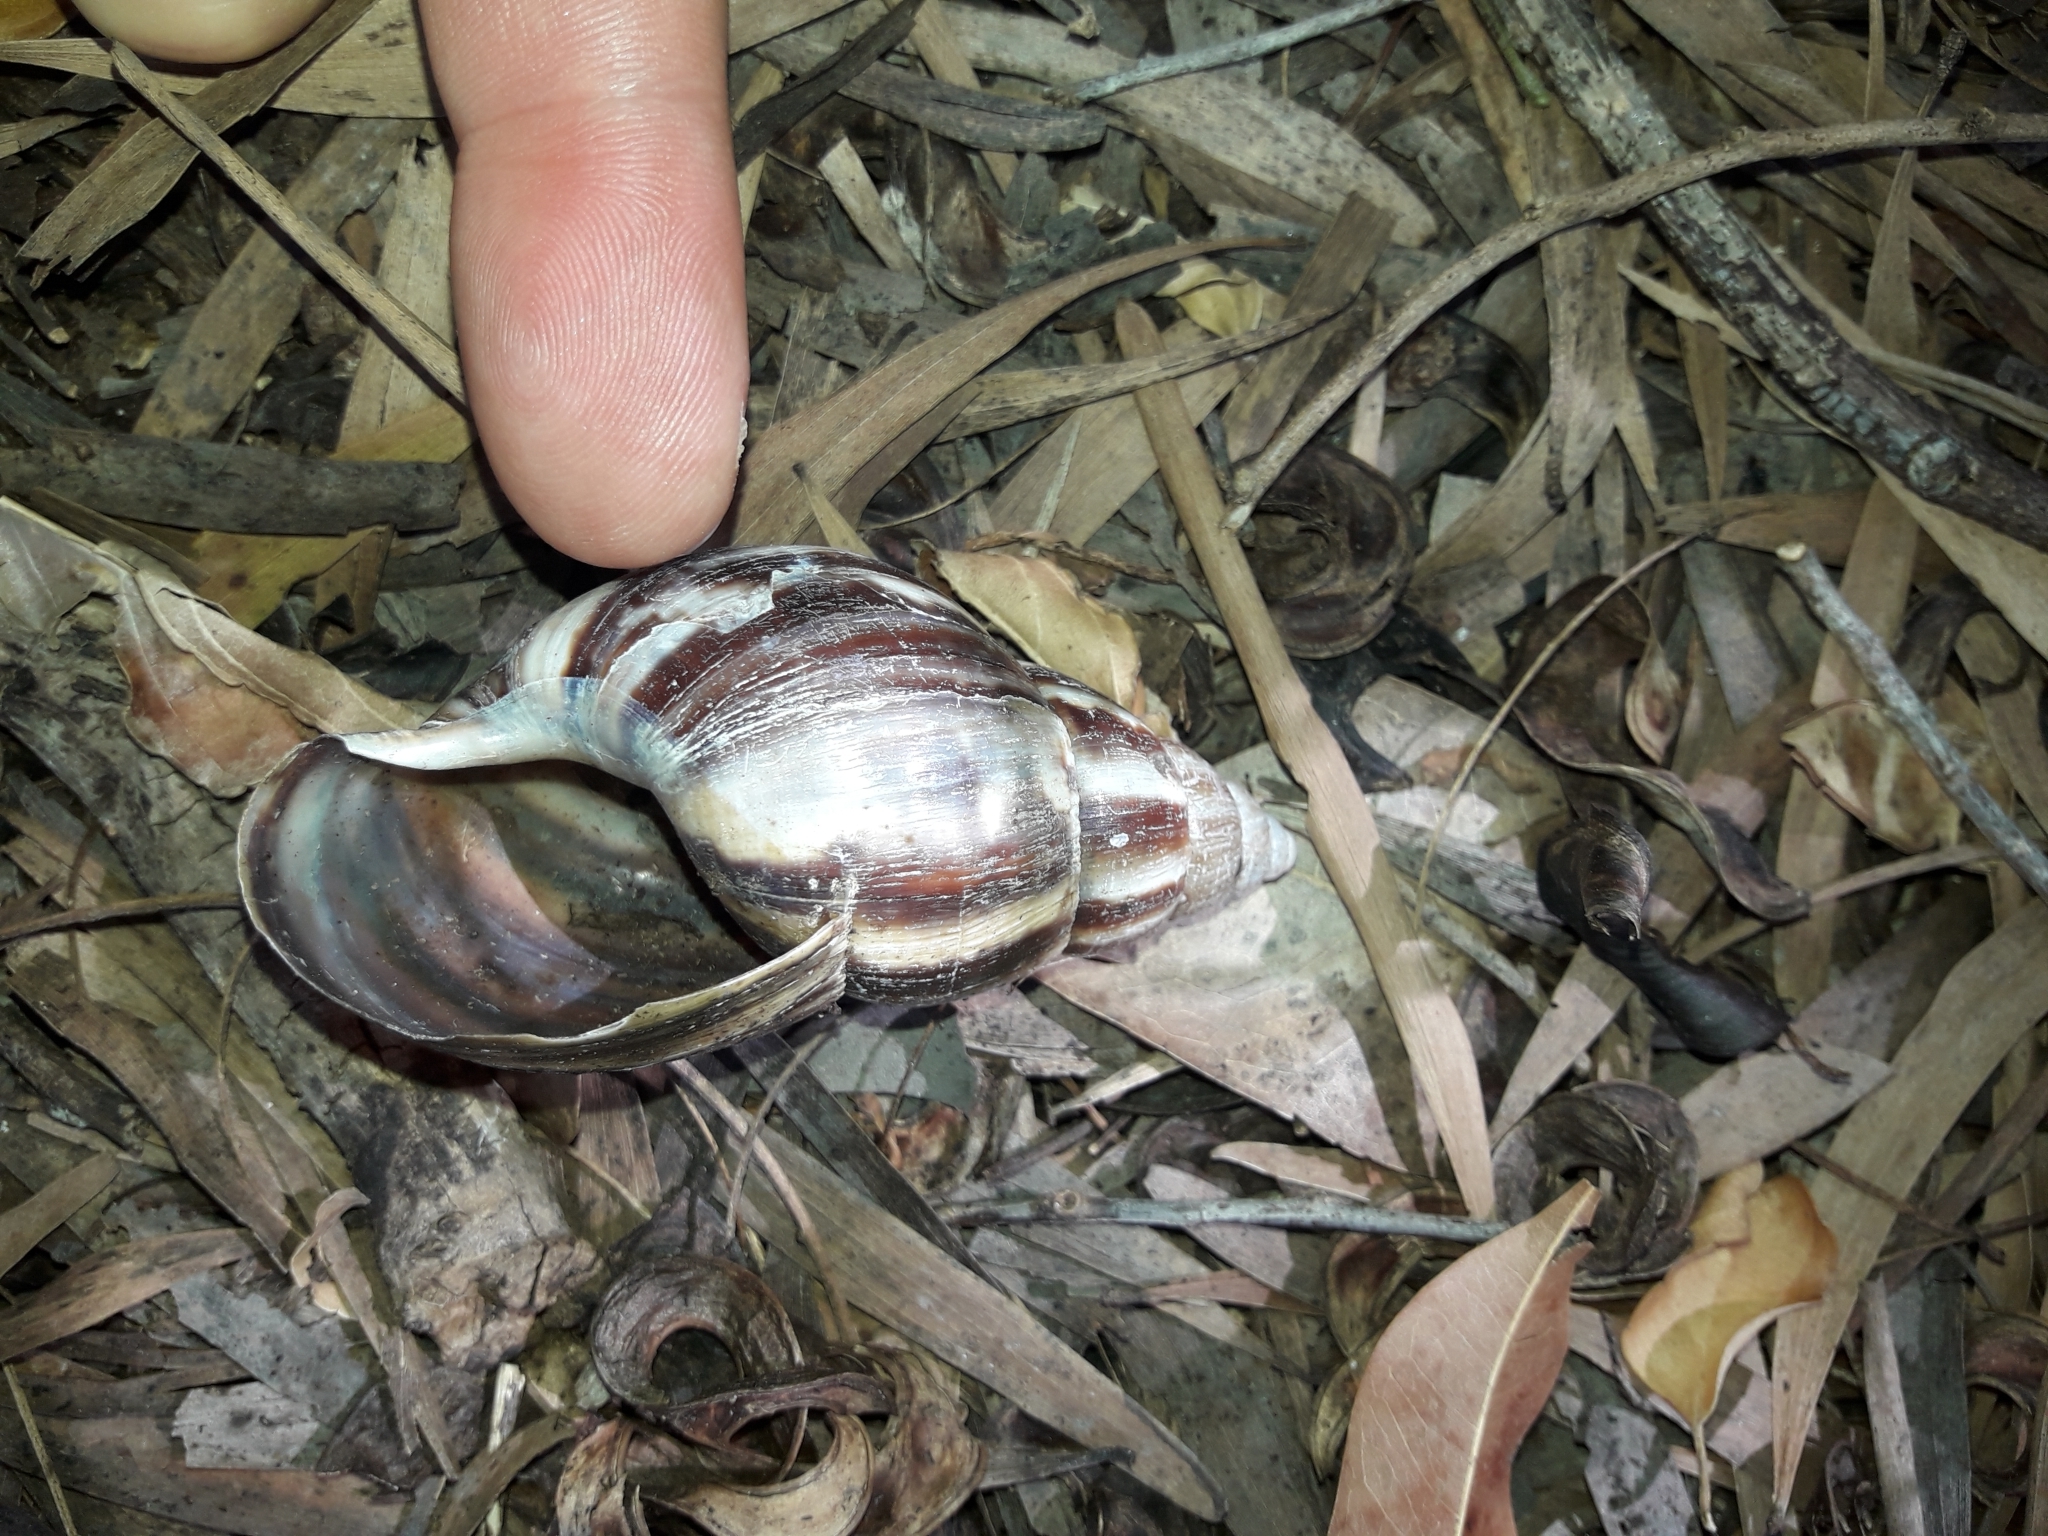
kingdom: Animalia
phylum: Mollusca
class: Gastropoda
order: Stylommatophora
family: Achatinidae
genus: Lissachatina
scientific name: Lissachatina fulica
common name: Giant african snail
